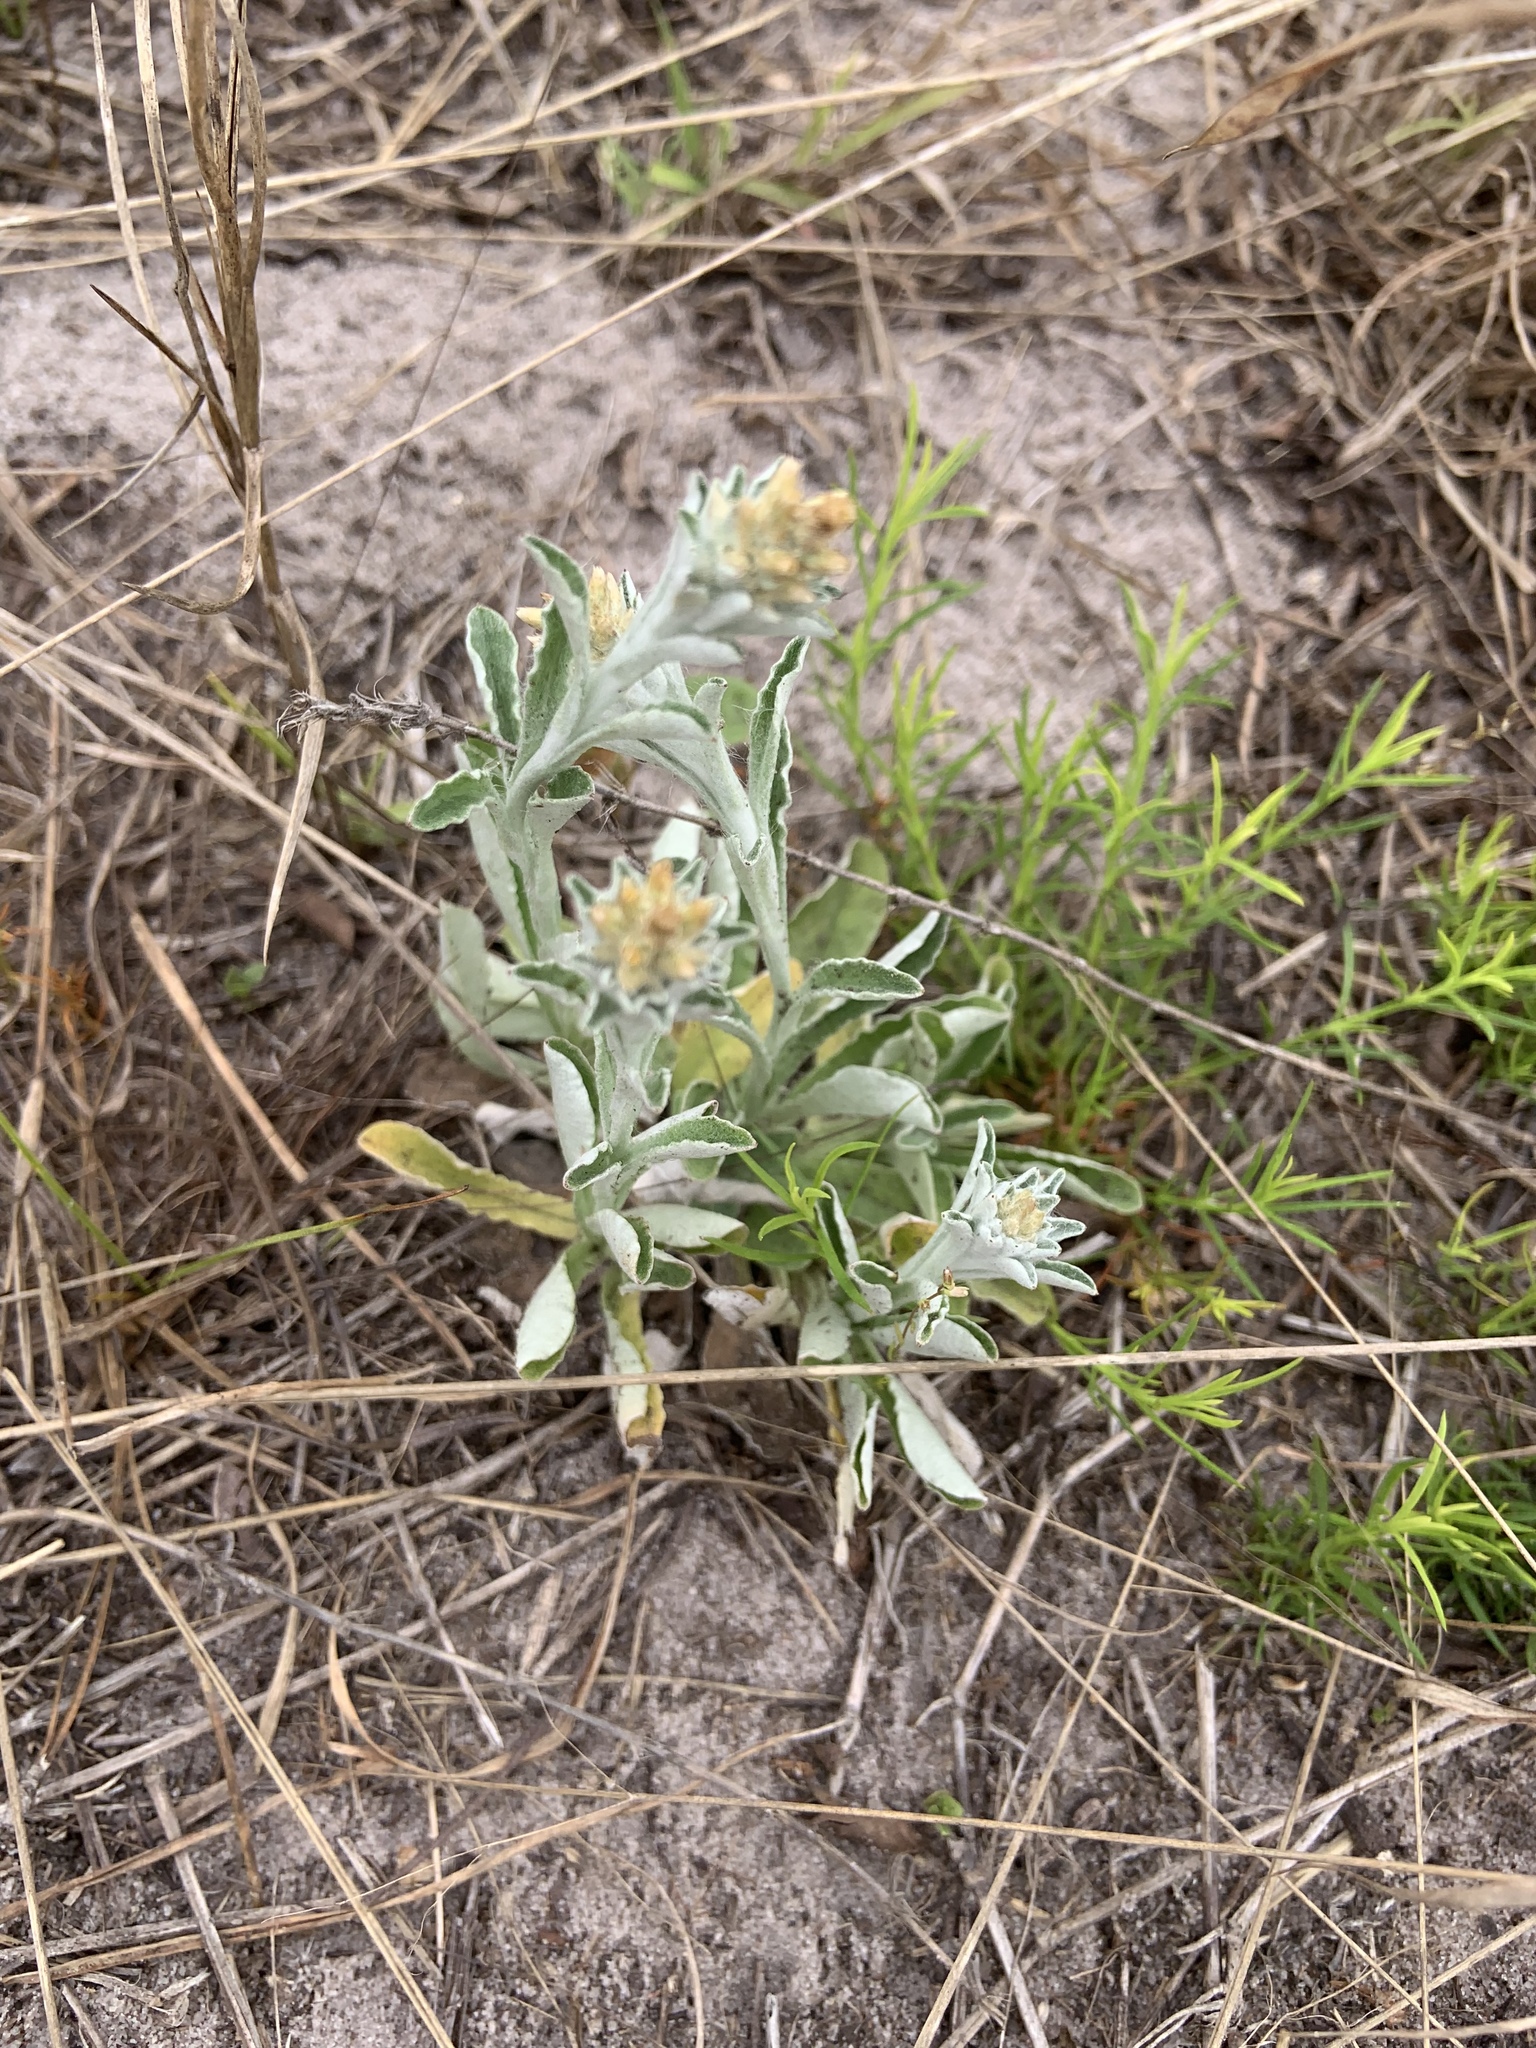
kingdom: Plantae
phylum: Tracheophyta
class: Magnoliopsida
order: Asterales
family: Asteraceae
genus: Gamochaeta
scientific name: Gamochaeta pensylvanica
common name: Pennsylvania everlasting
